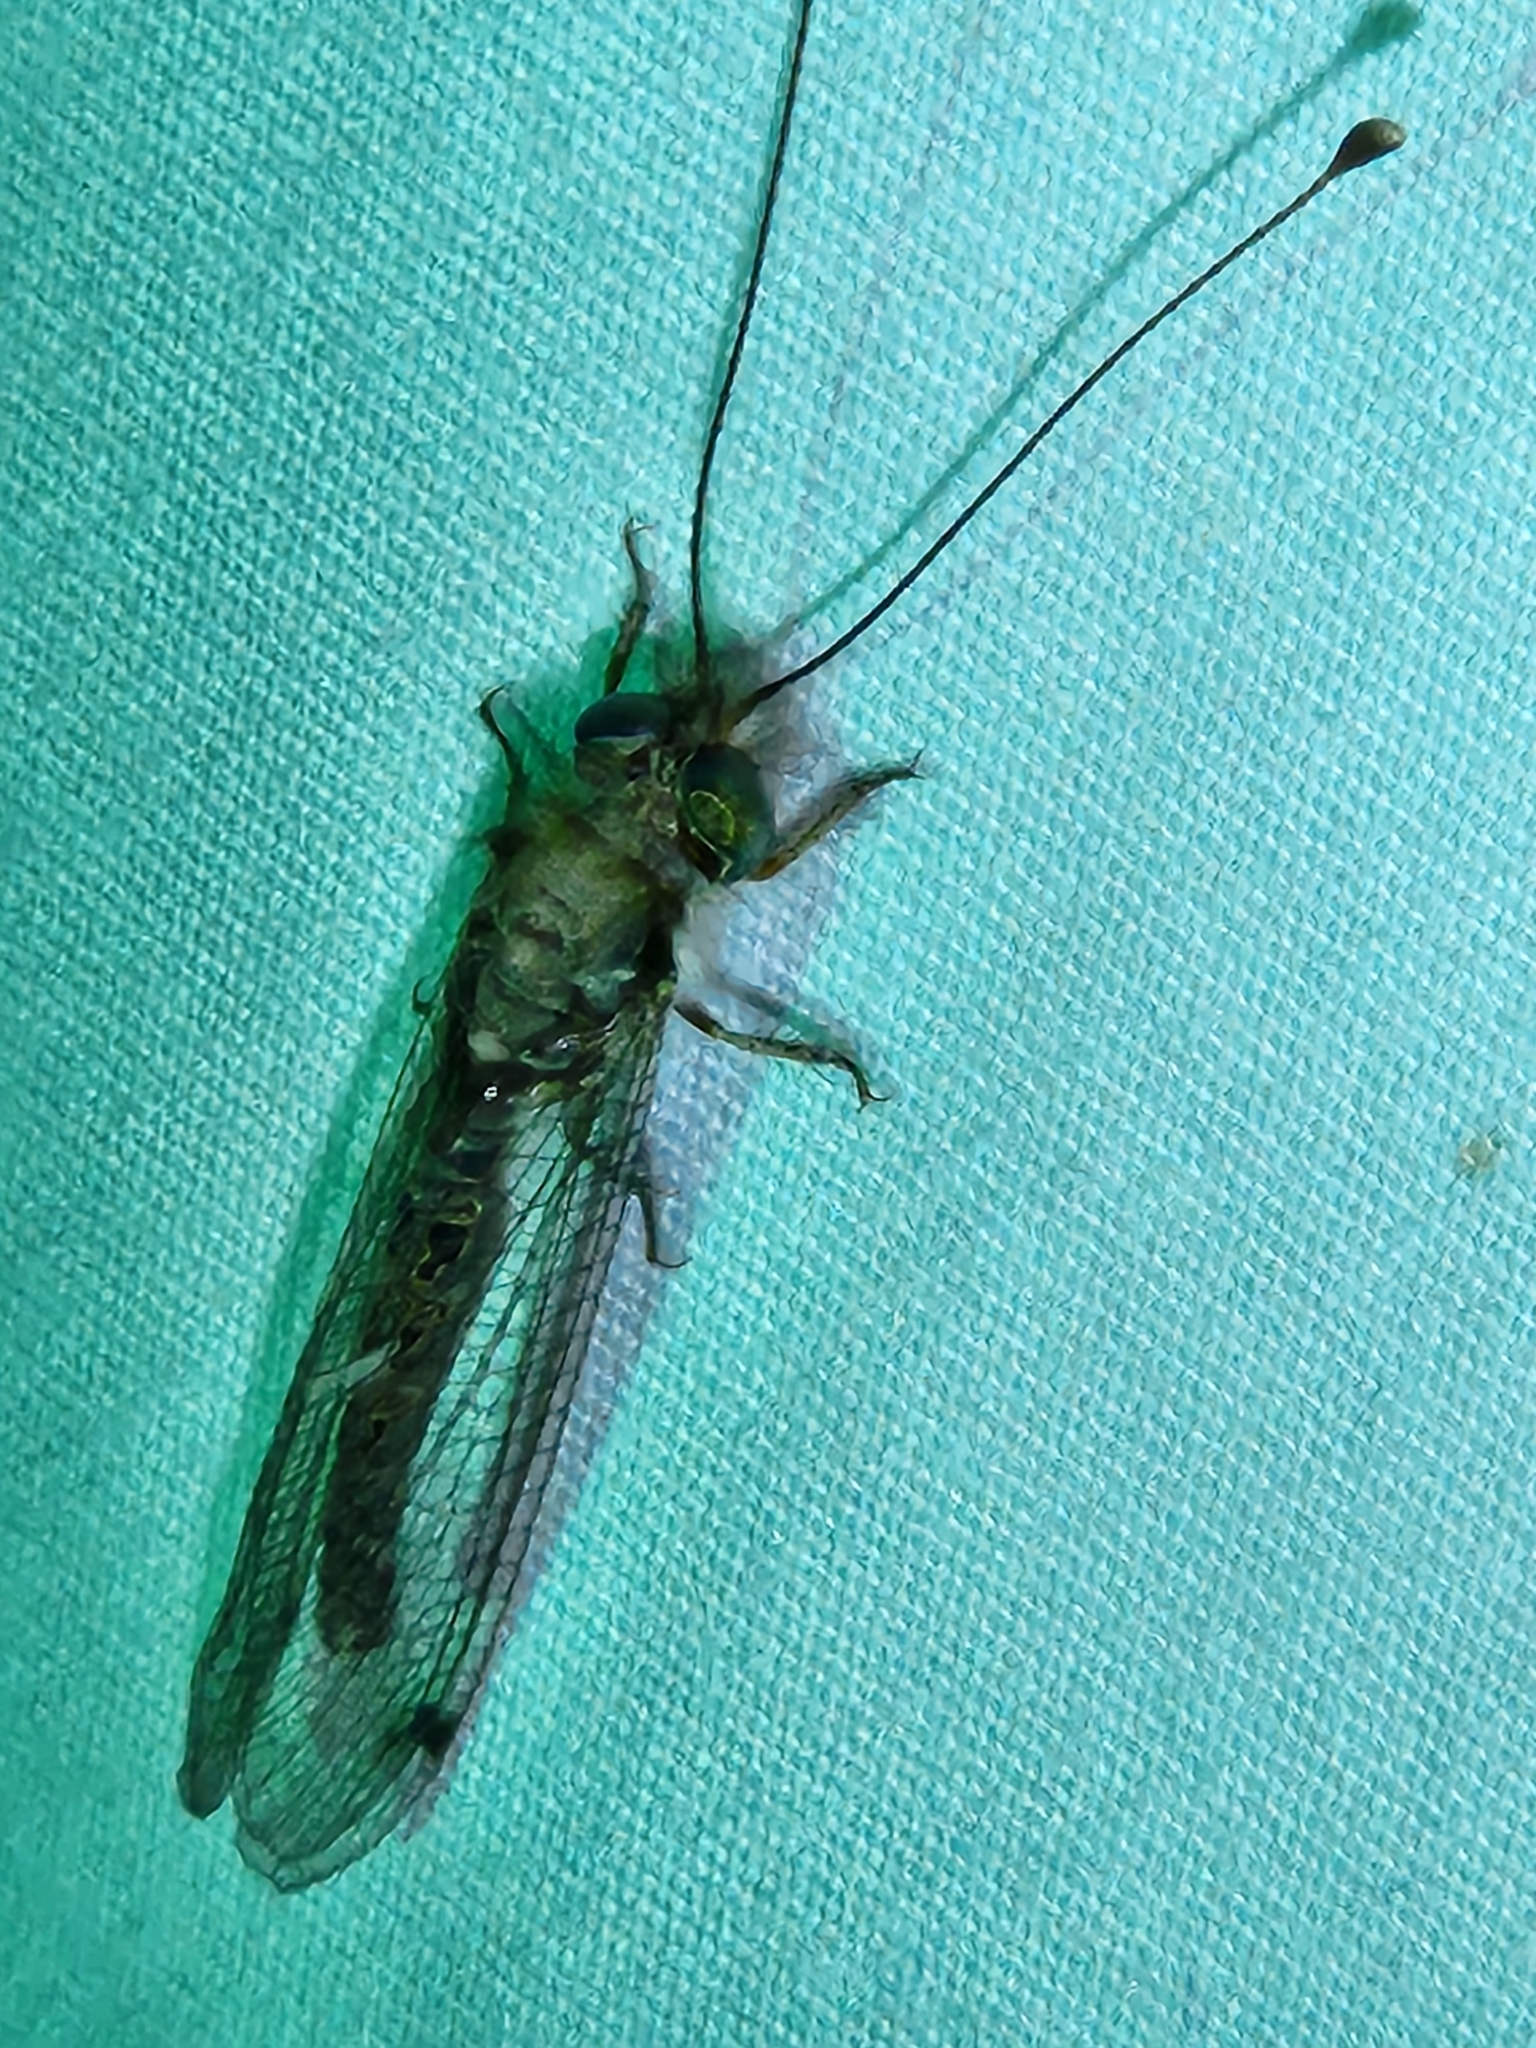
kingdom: Animalia
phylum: Arthropoda
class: Insecta
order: Neuroptera
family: Ascalaphidae
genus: Ululodes
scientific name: Ululodes macleayanus
